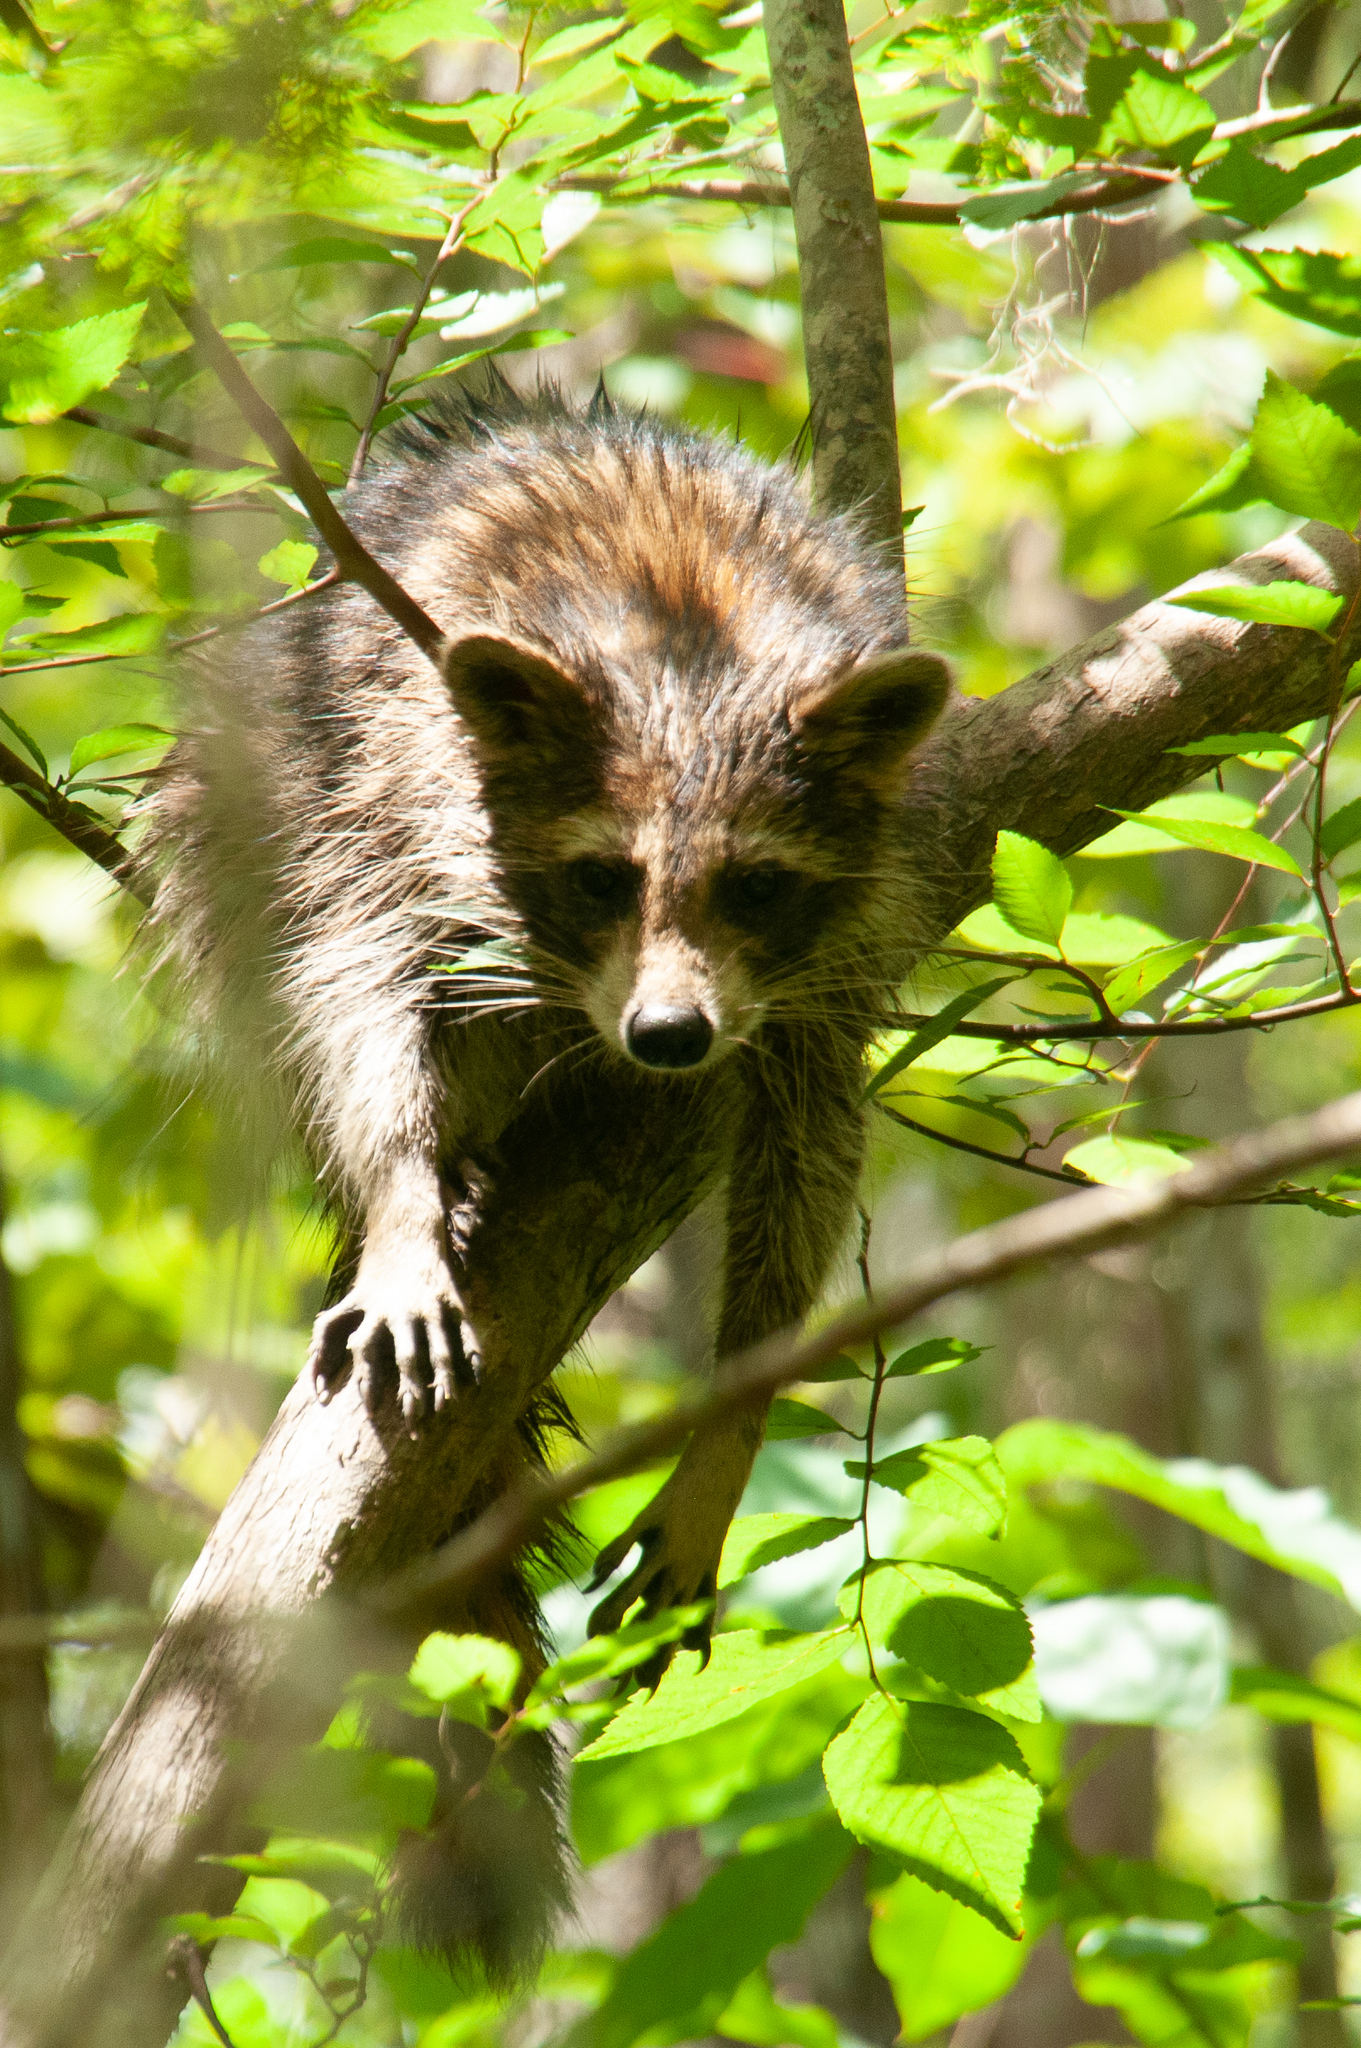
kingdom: Animalia
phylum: Chordata
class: Mammalia
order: Carnivora
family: Procyonidae
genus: Procyon
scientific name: Procyon lotor
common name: Raccoon
